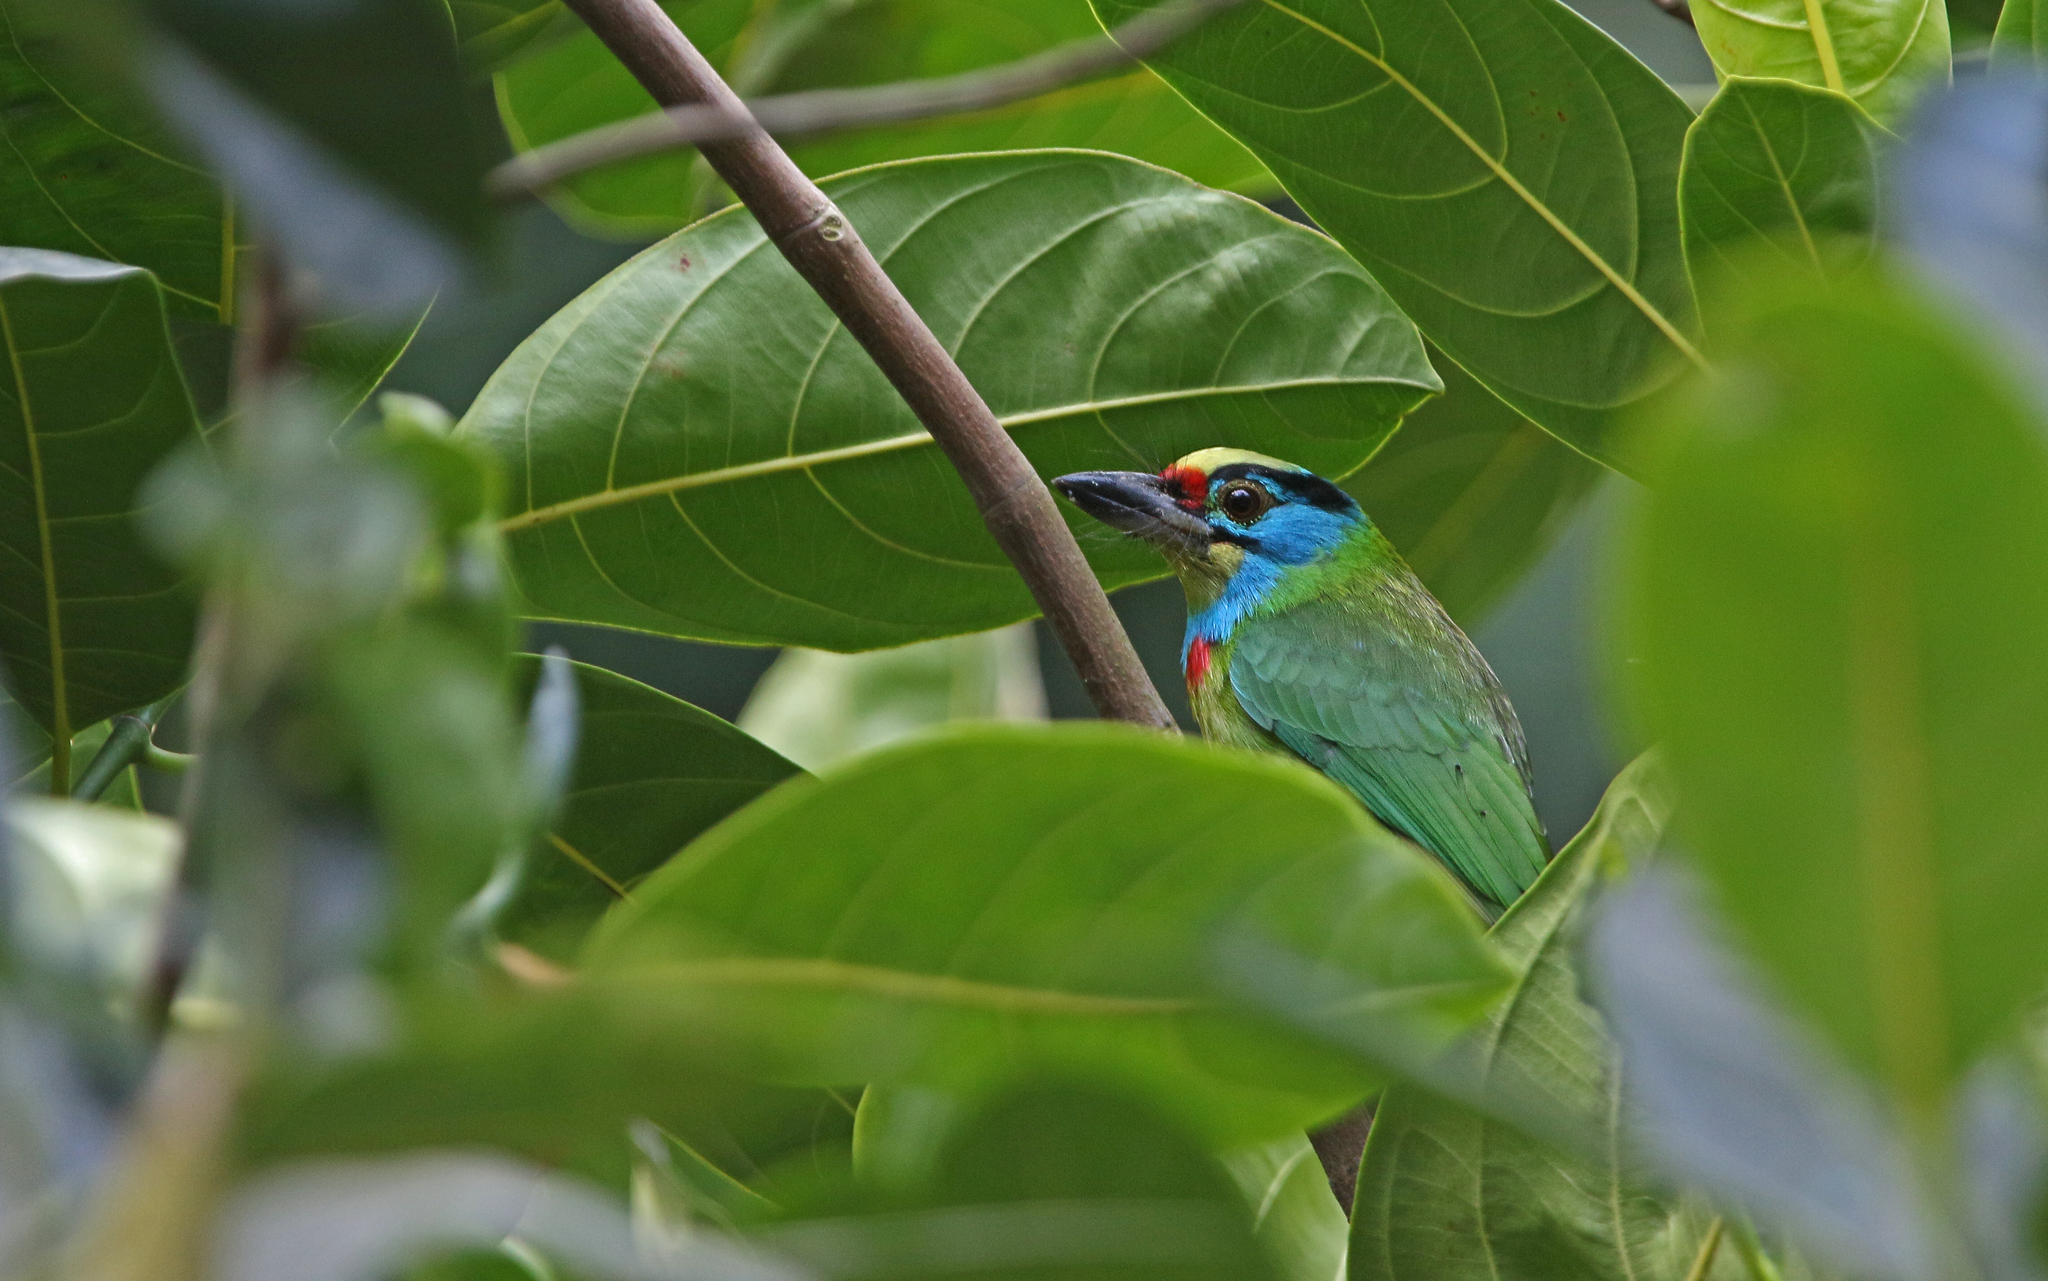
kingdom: Animalia
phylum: Chordata
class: Aves
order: Piciformes
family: Megalaimidae
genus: Psilopogon
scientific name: Psilopogon annamensis
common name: Indochinese barbet
